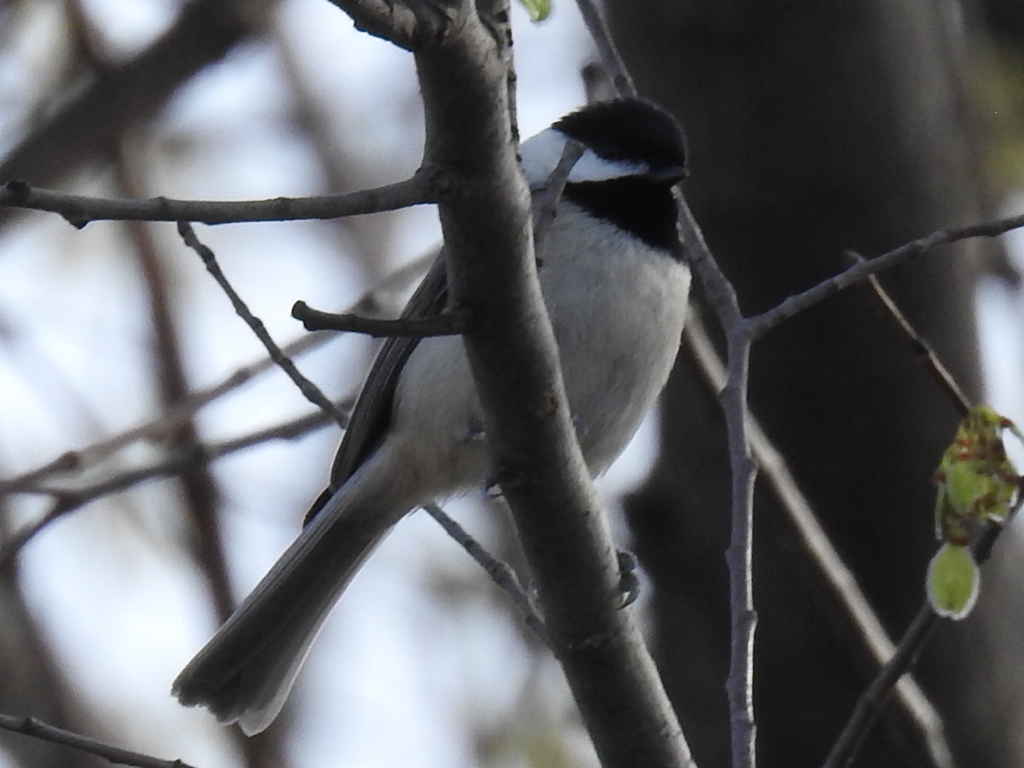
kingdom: Animalia
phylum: Chordata
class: Aves
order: Passeriformes
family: Paridae
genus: Poecile
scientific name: Poecile carolinensis
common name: Carolina chickadee
